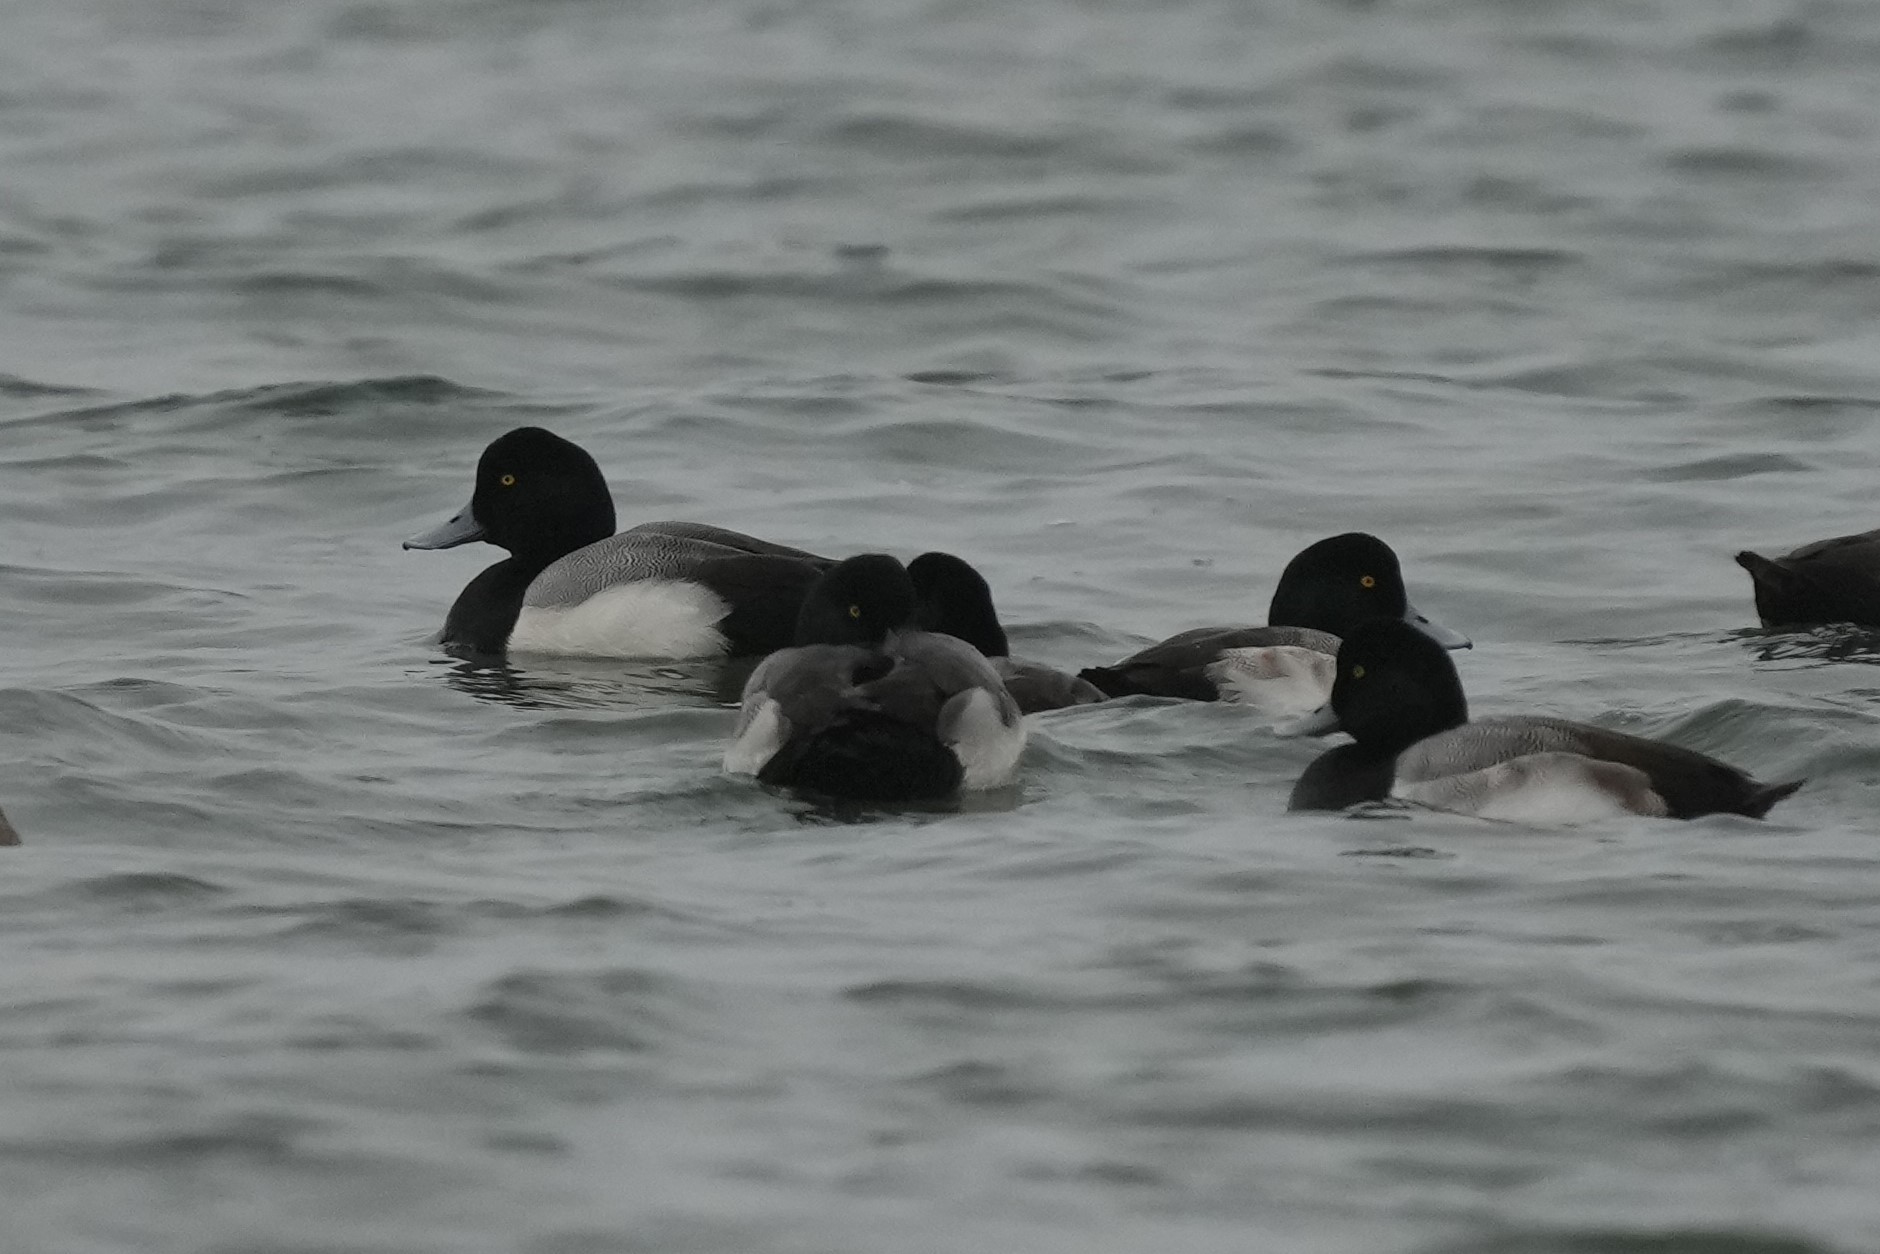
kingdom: Animalia
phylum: Chordata
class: Aves
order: Anseriformes
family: Anatidae
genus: Aythya
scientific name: Aythya marila
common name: Greater scaup
